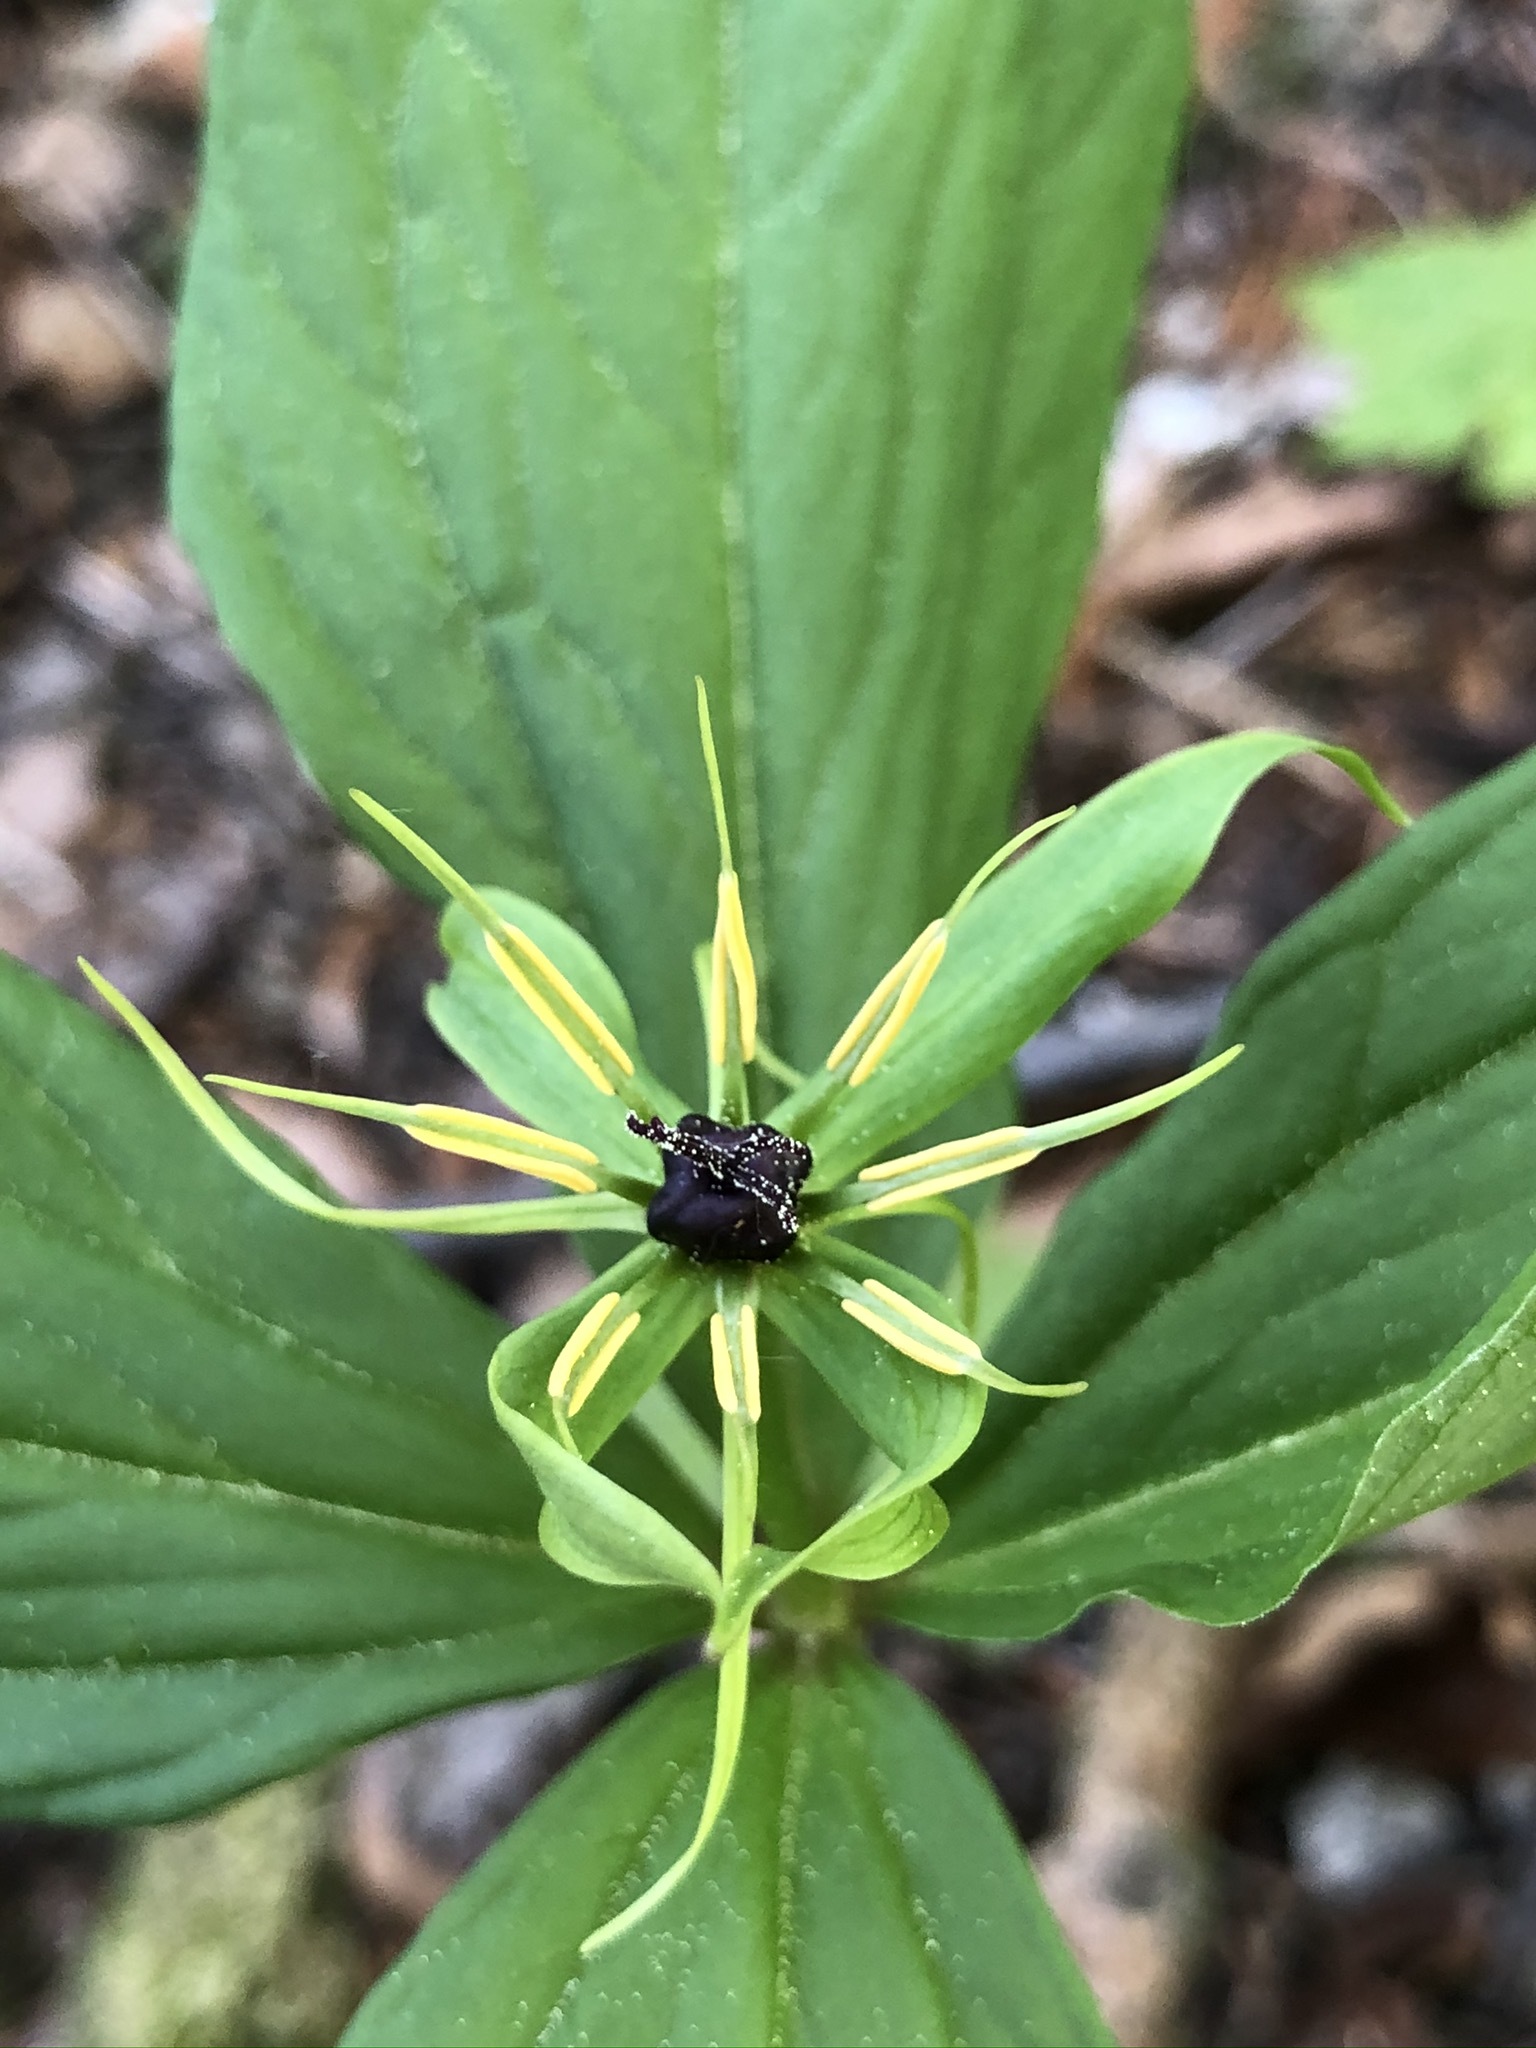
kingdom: Plantae
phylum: Tracheophyta
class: Liliopsida
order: Liliales
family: Melanthiaceae
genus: Paris
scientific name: Paris quadrifolia
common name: Herb-paris
